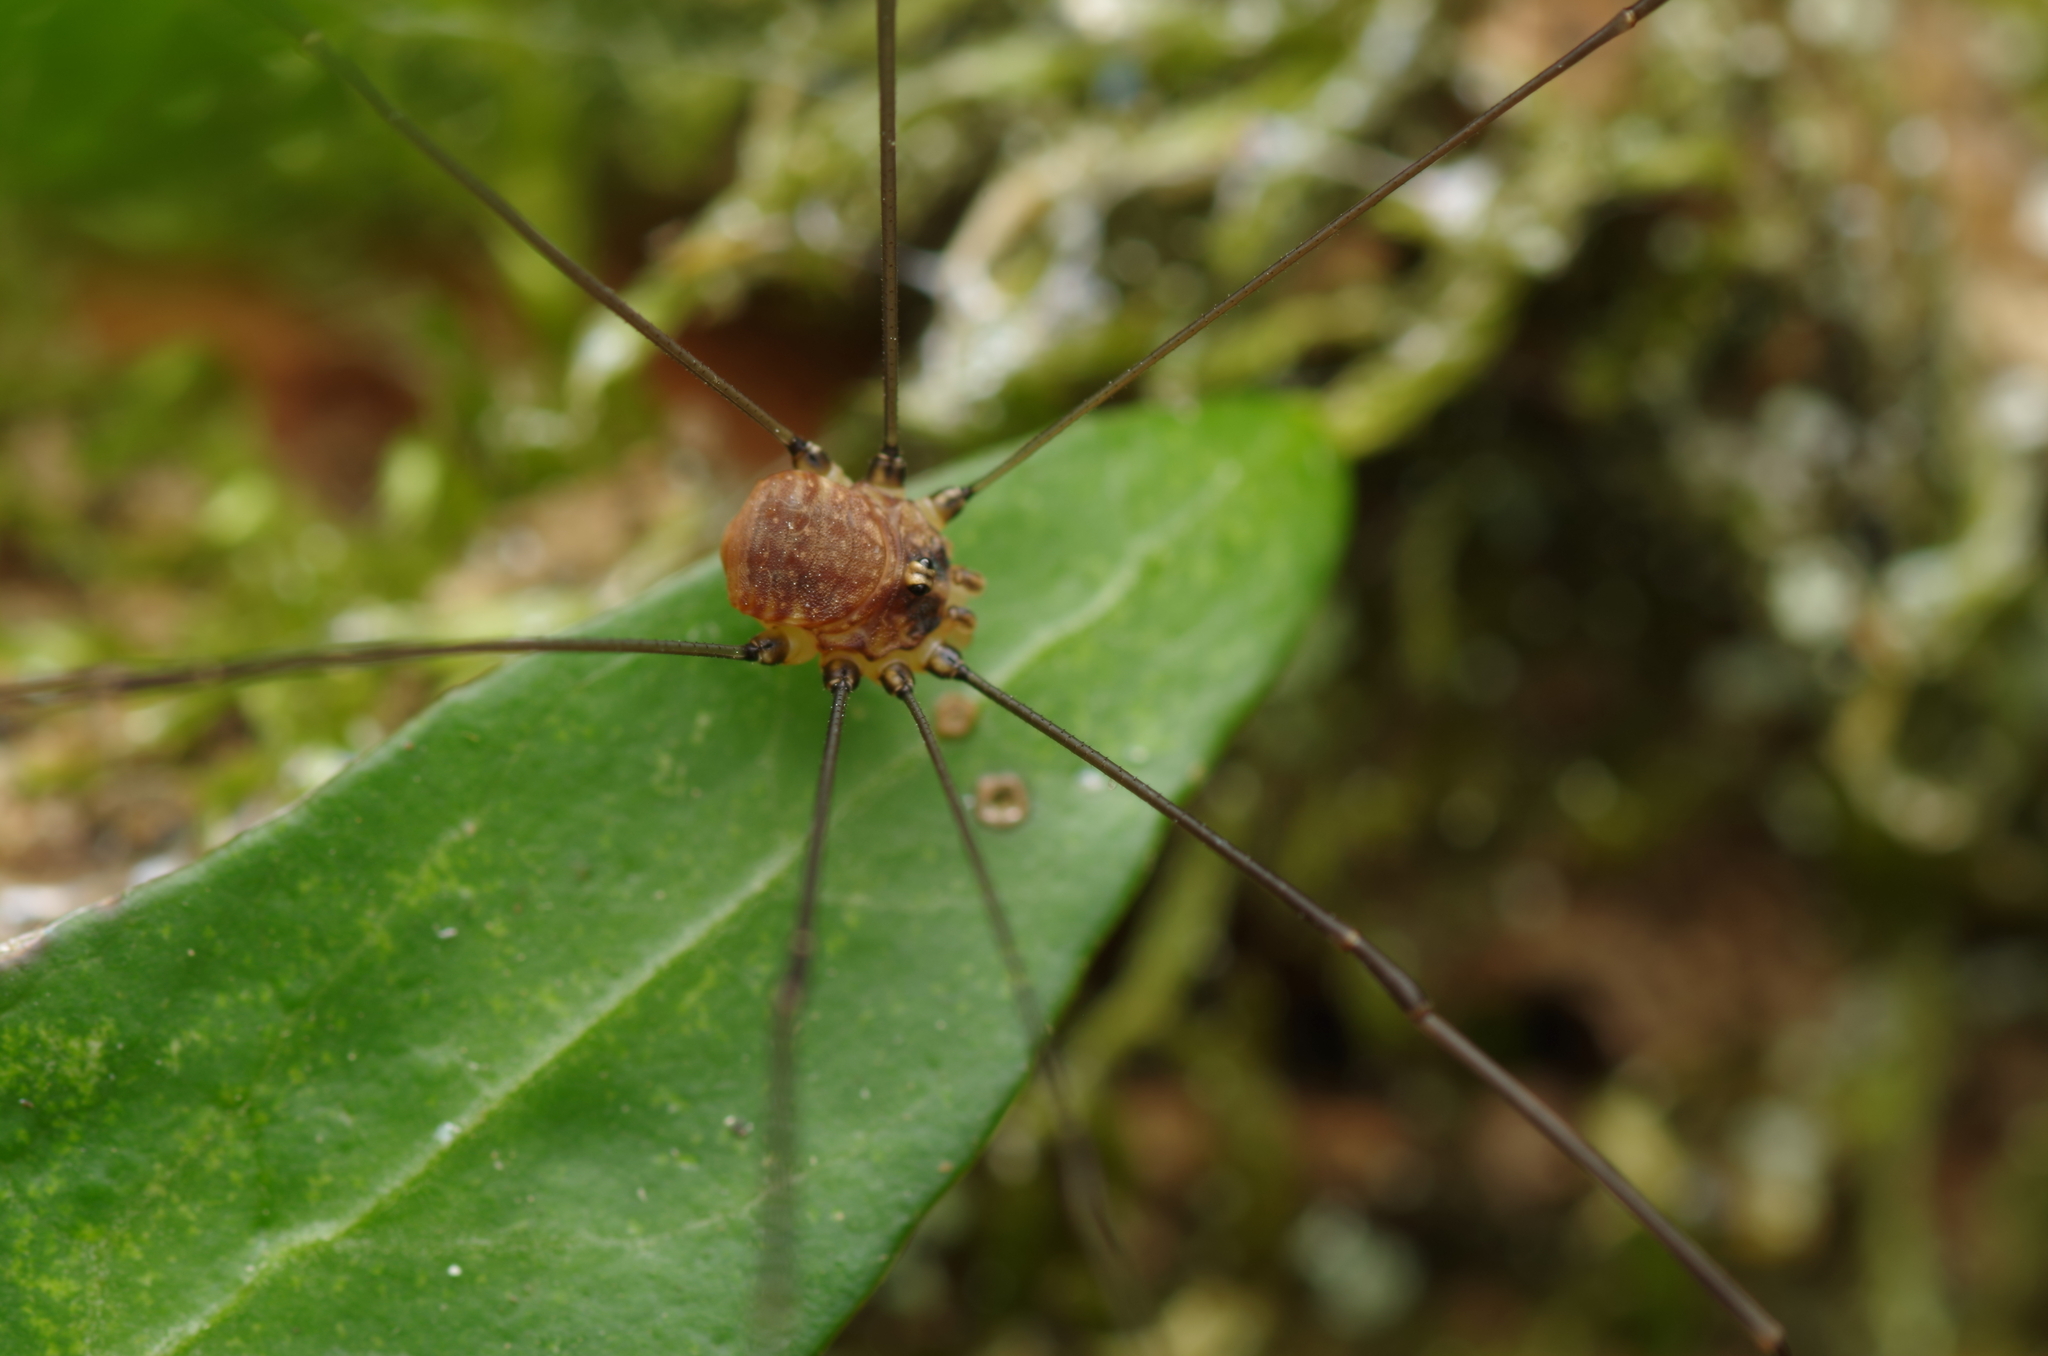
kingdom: Animalia
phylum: Arthropoda
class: Arachnida
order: Opiliones
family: Sclerosomatidae
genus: Leiobunum
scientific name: Leiobunum blackwalli
